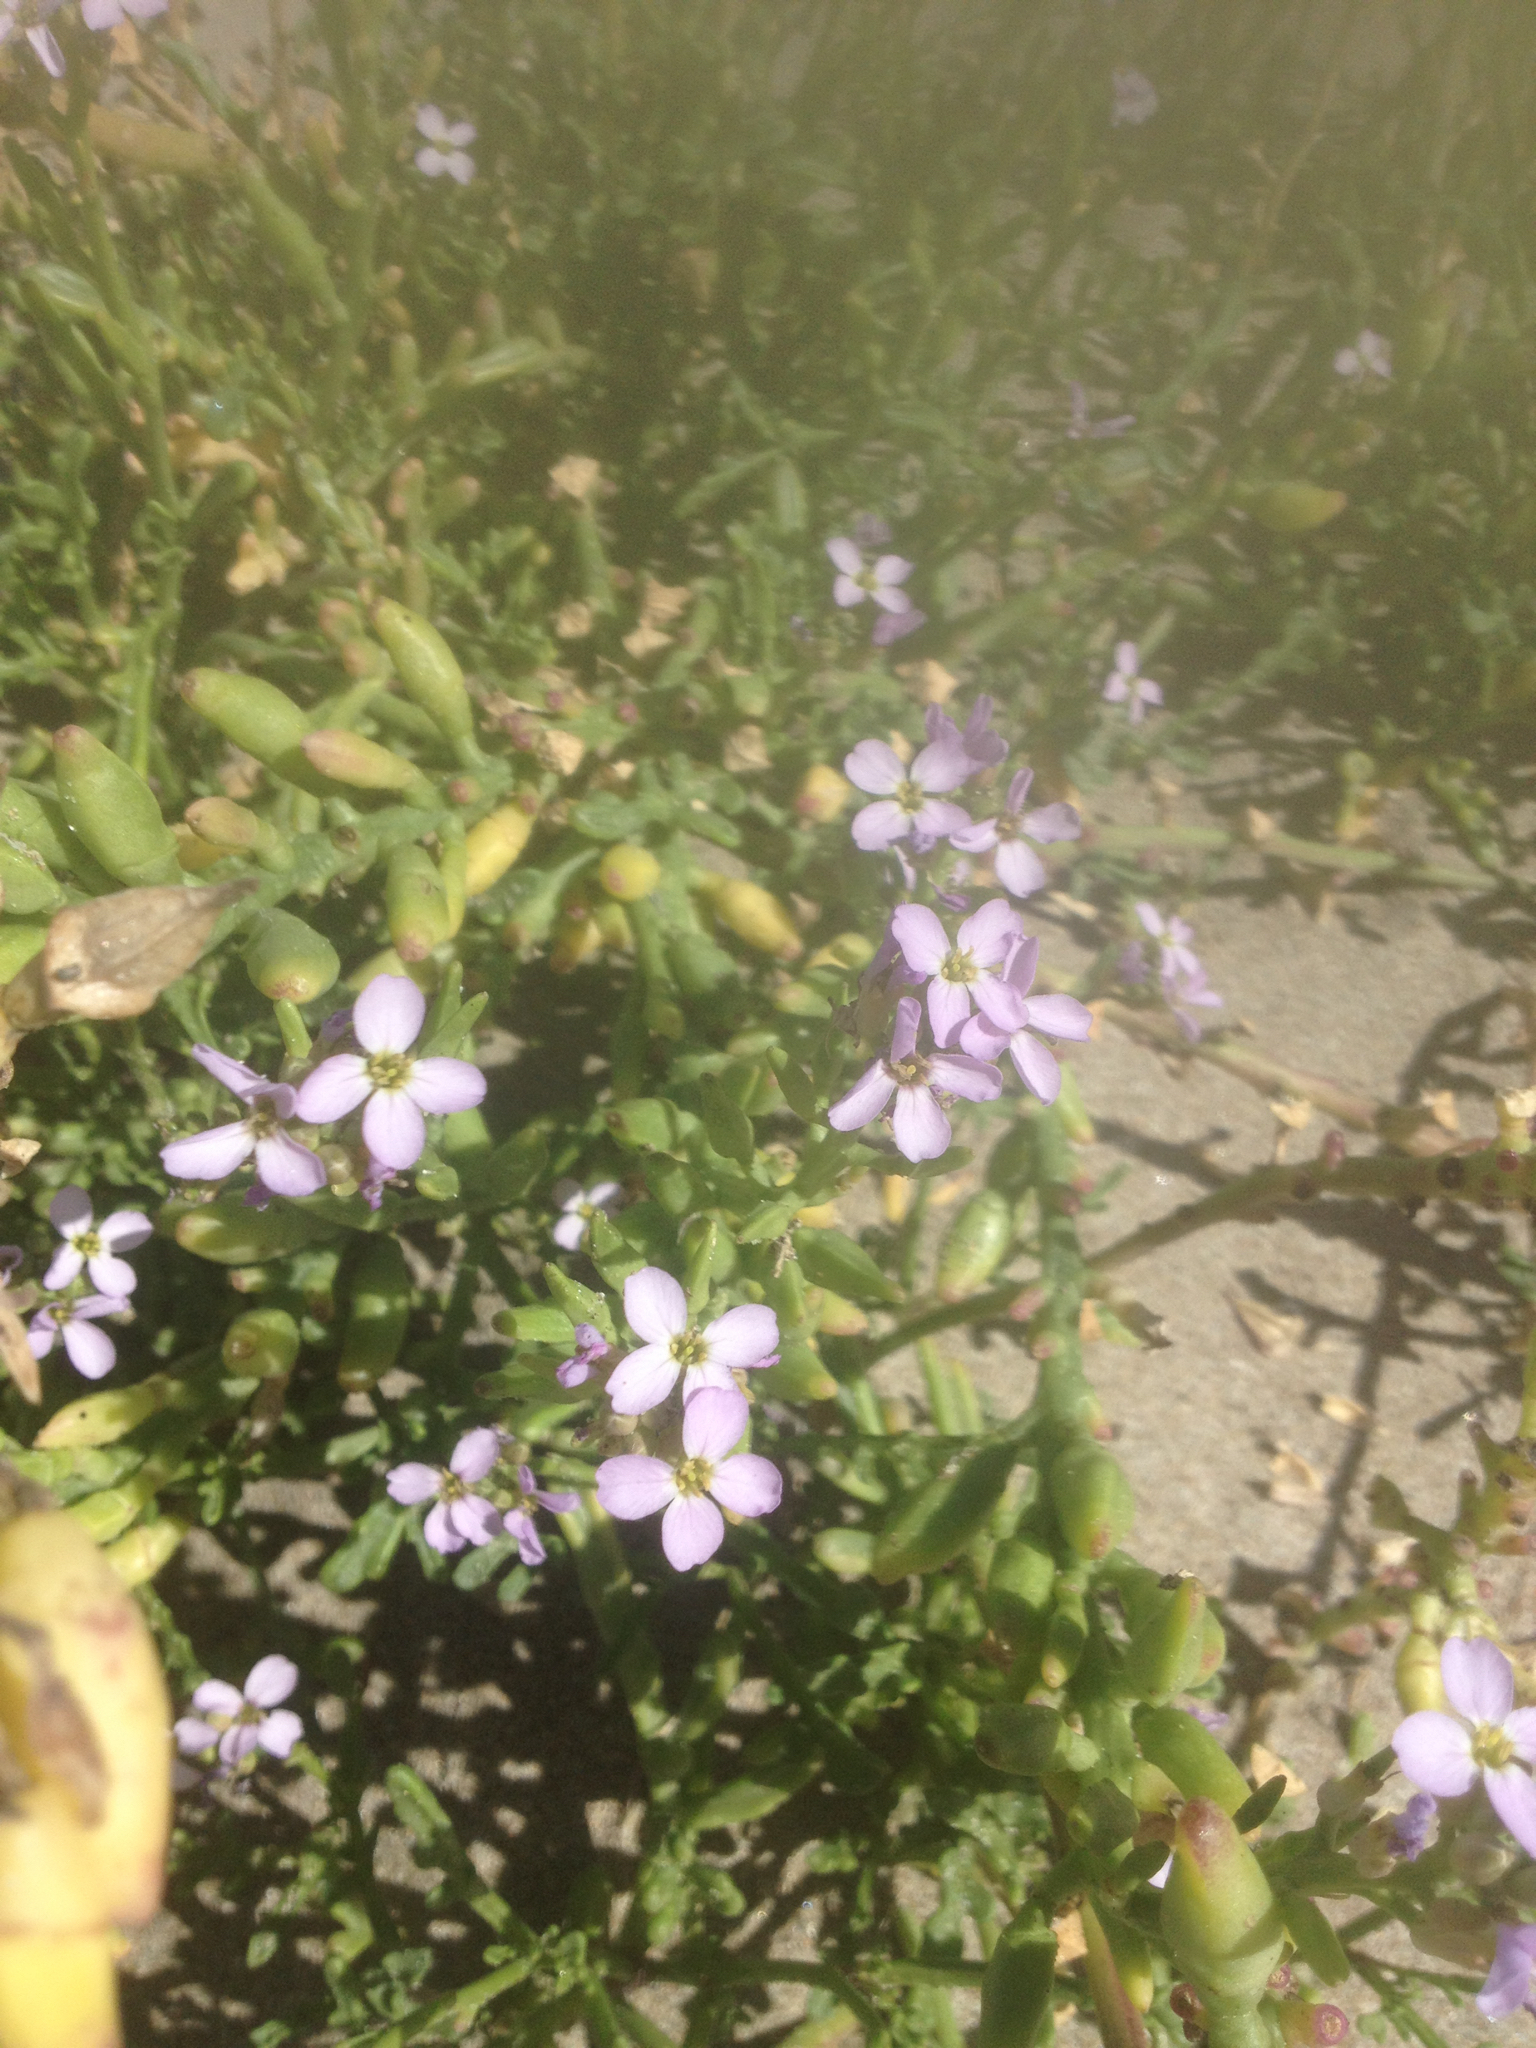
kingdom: Plantae
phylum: Tracheophyta
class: Magnoliopsida
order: Brassicales
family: Brassicaceae
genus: Cakile
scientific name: Cakile edentula
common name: American sea rocket
